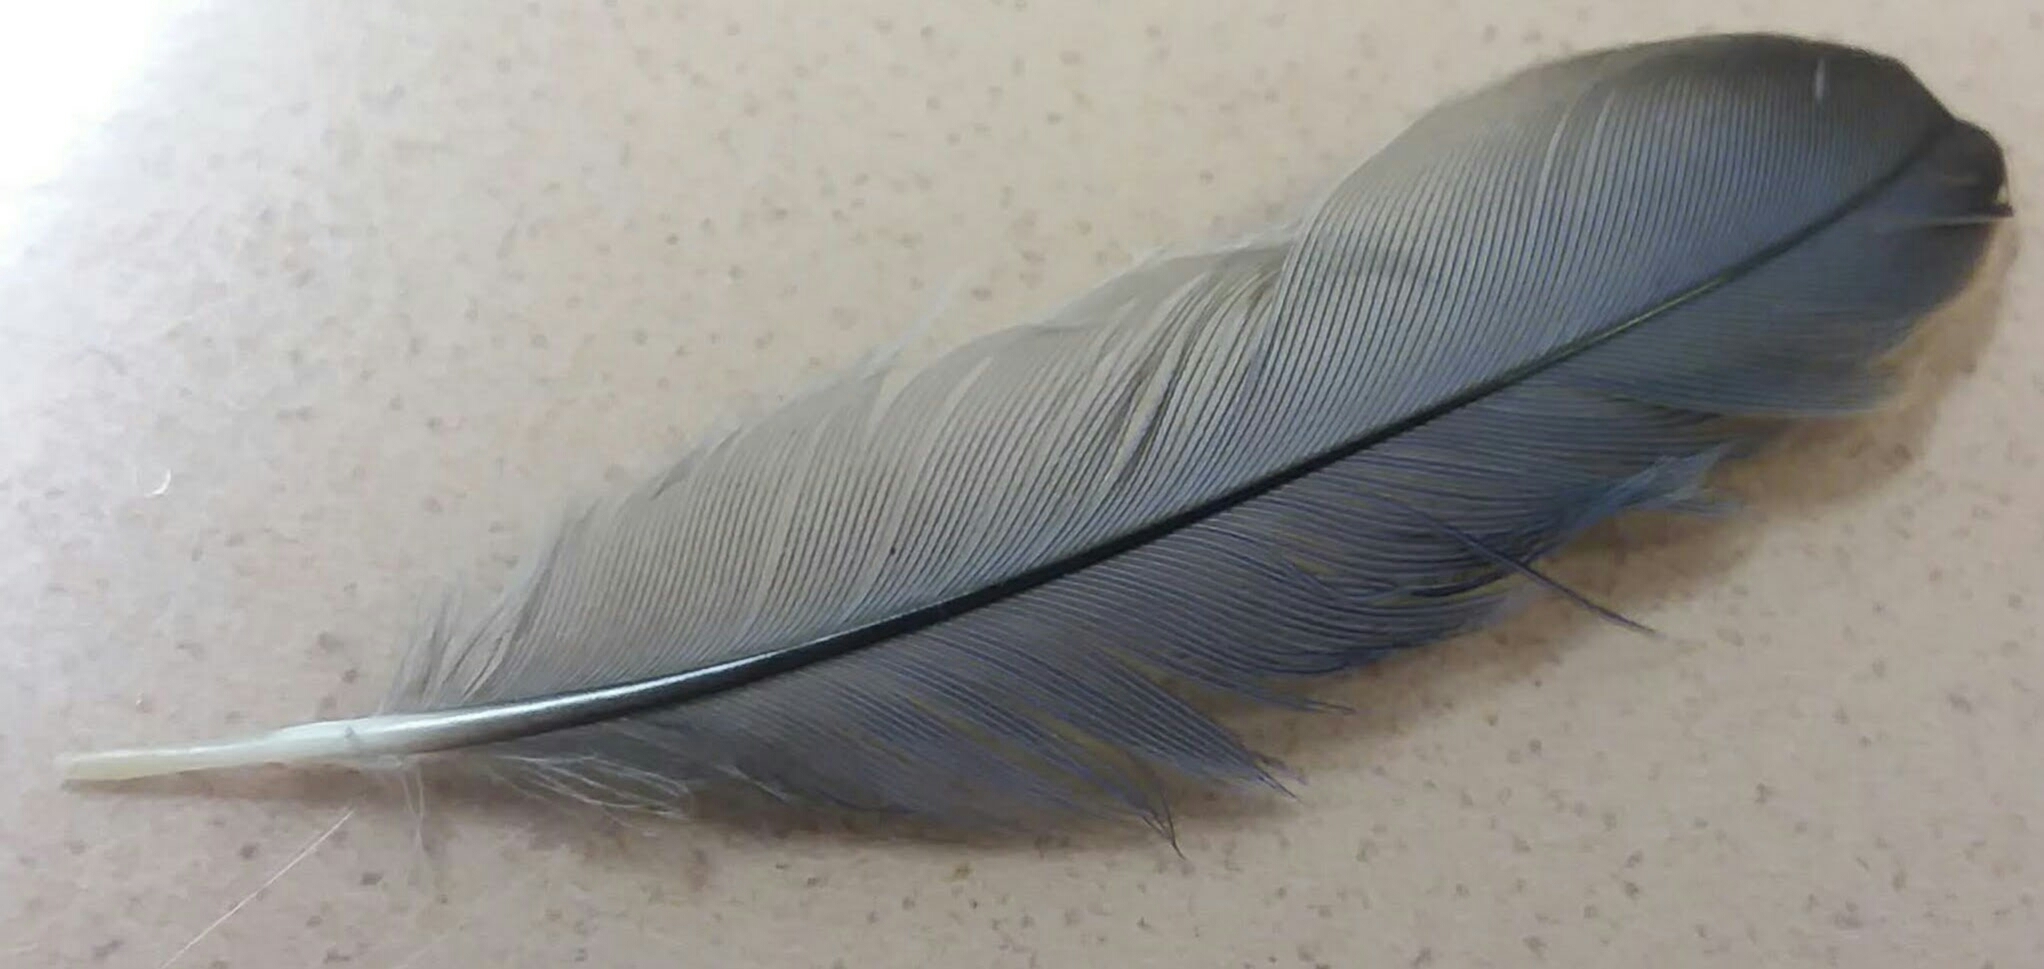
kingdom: Animalia
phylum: Chordata
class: Aves
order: Passeriformes
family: Turdidae
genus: Sialia
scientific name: Sialia sialis
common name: Eastern bluebird
